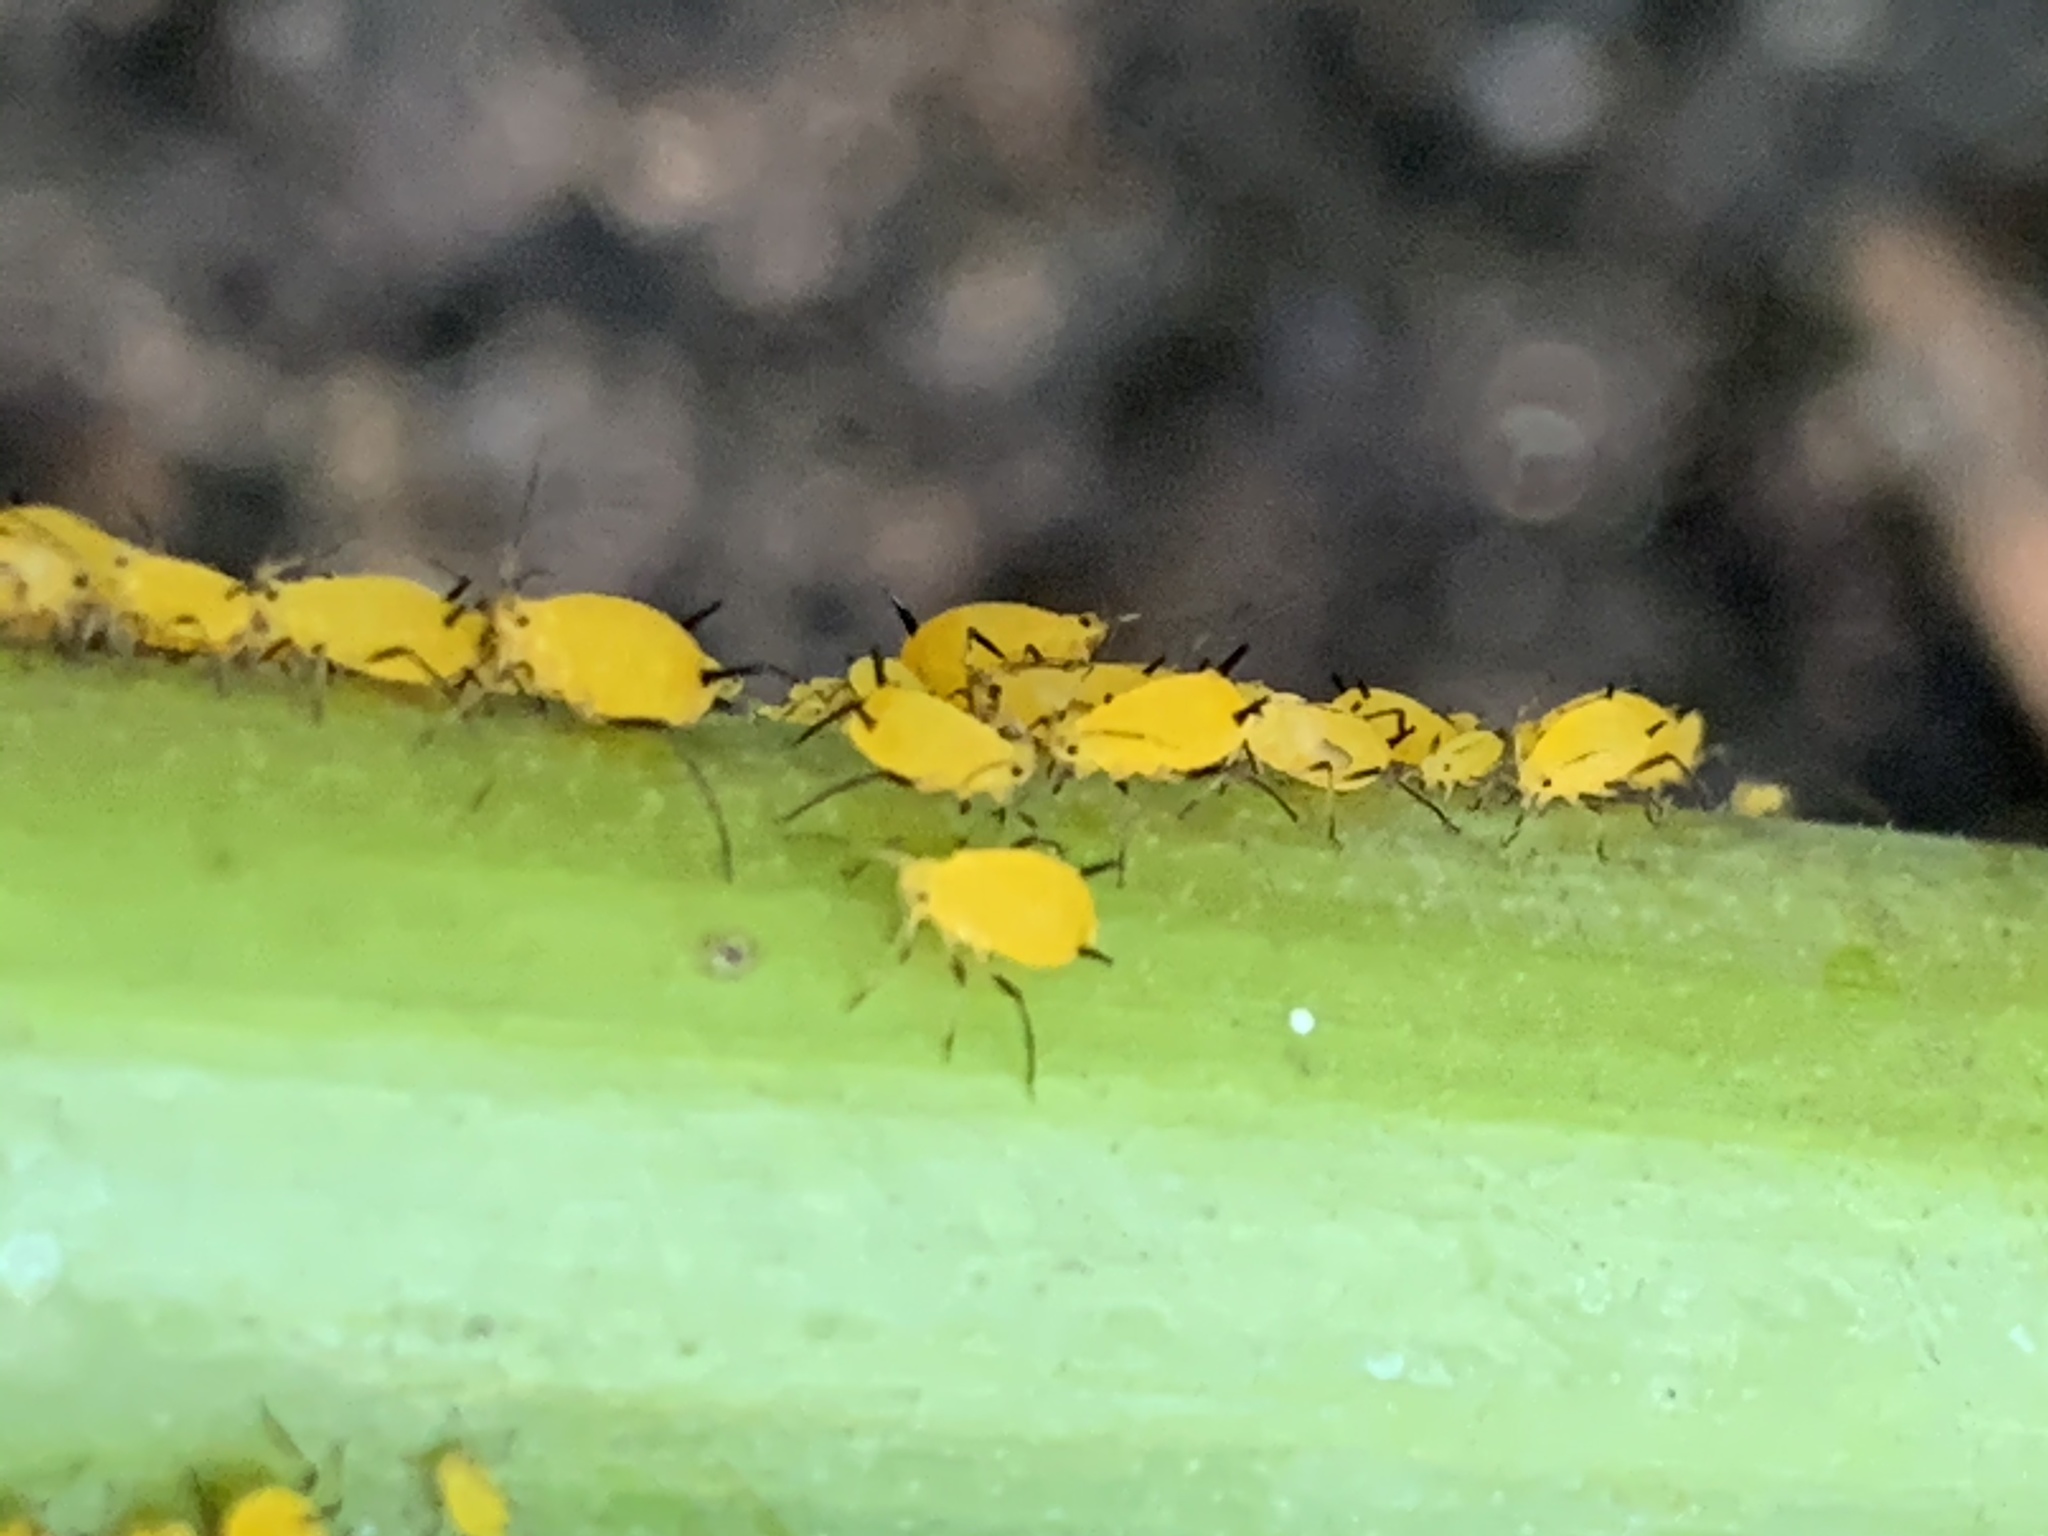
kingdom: Animalia
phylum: Arthropoda
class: Insecta
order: Hemiptera
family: Aphididae
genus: Aphis
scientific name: Aphis nerii
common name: Oleander aphid
